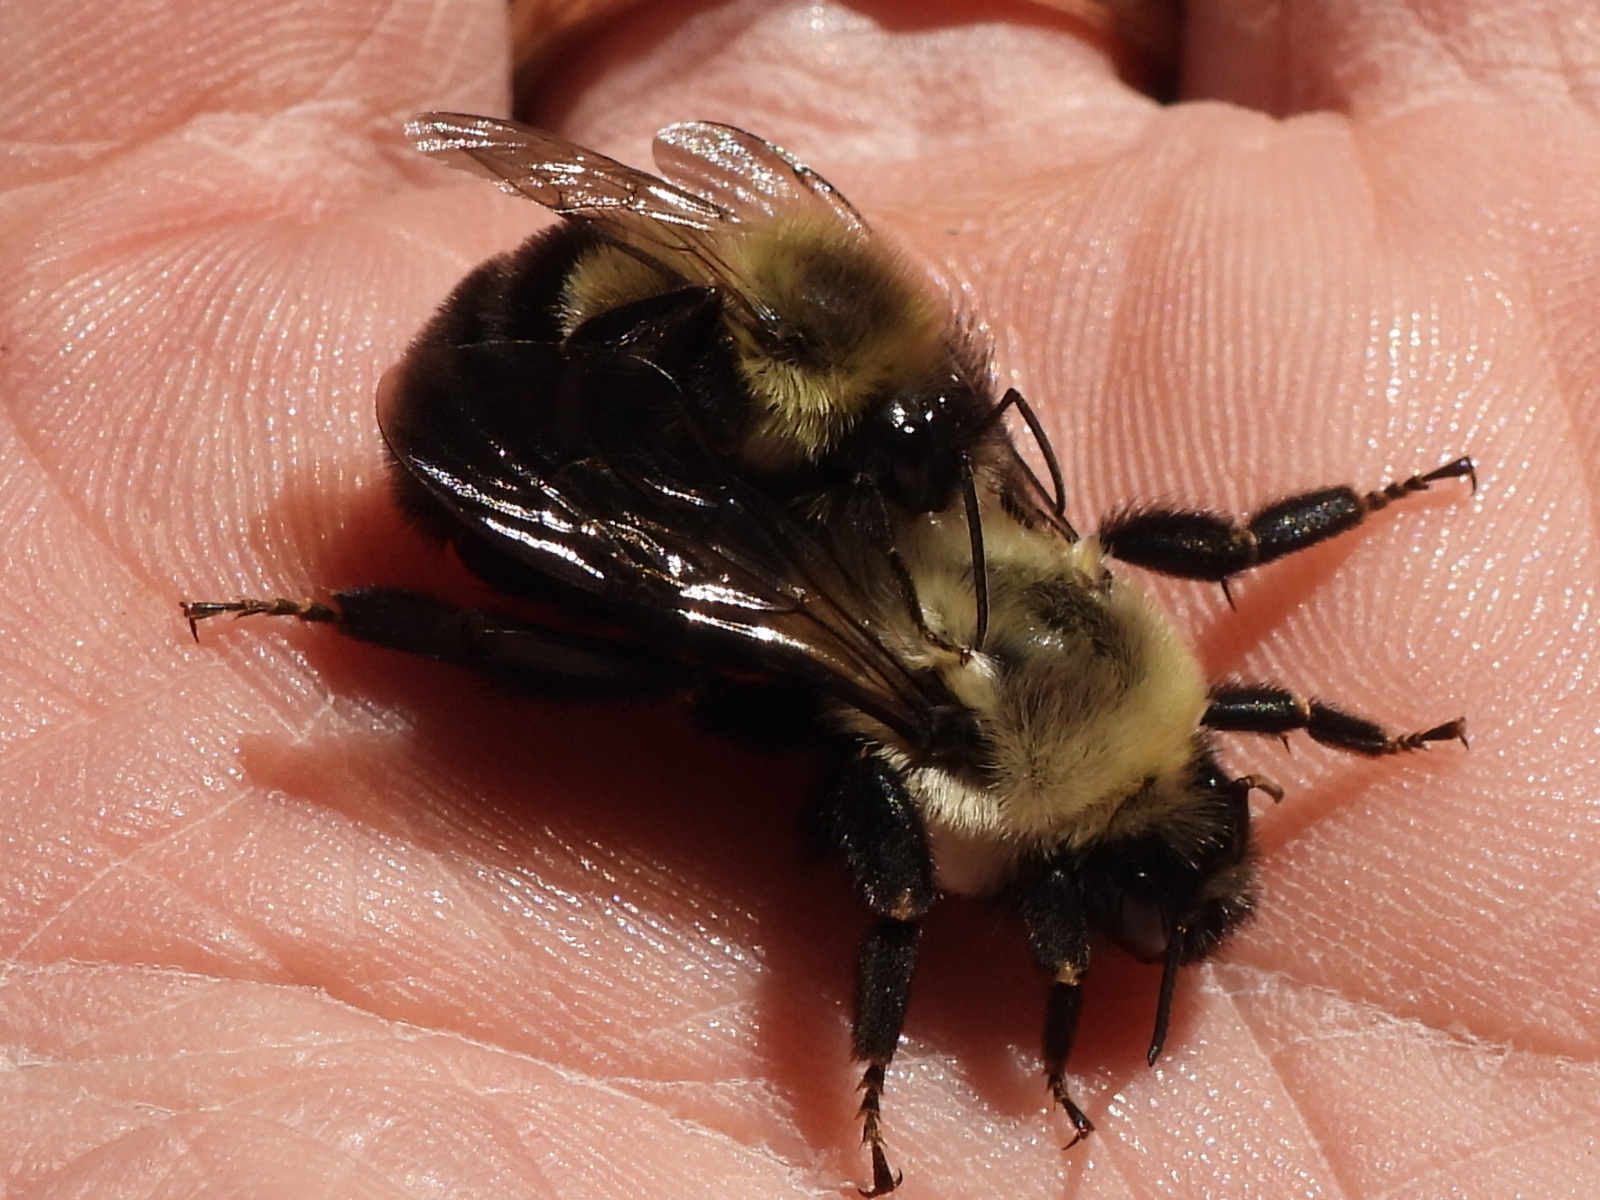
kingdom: Animalia
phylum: Arthropoda
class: Insecta
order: Hymenoptera
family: Apidae
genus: Bombus
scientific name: Bombus impatiens
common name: Common eastern bumble bee
